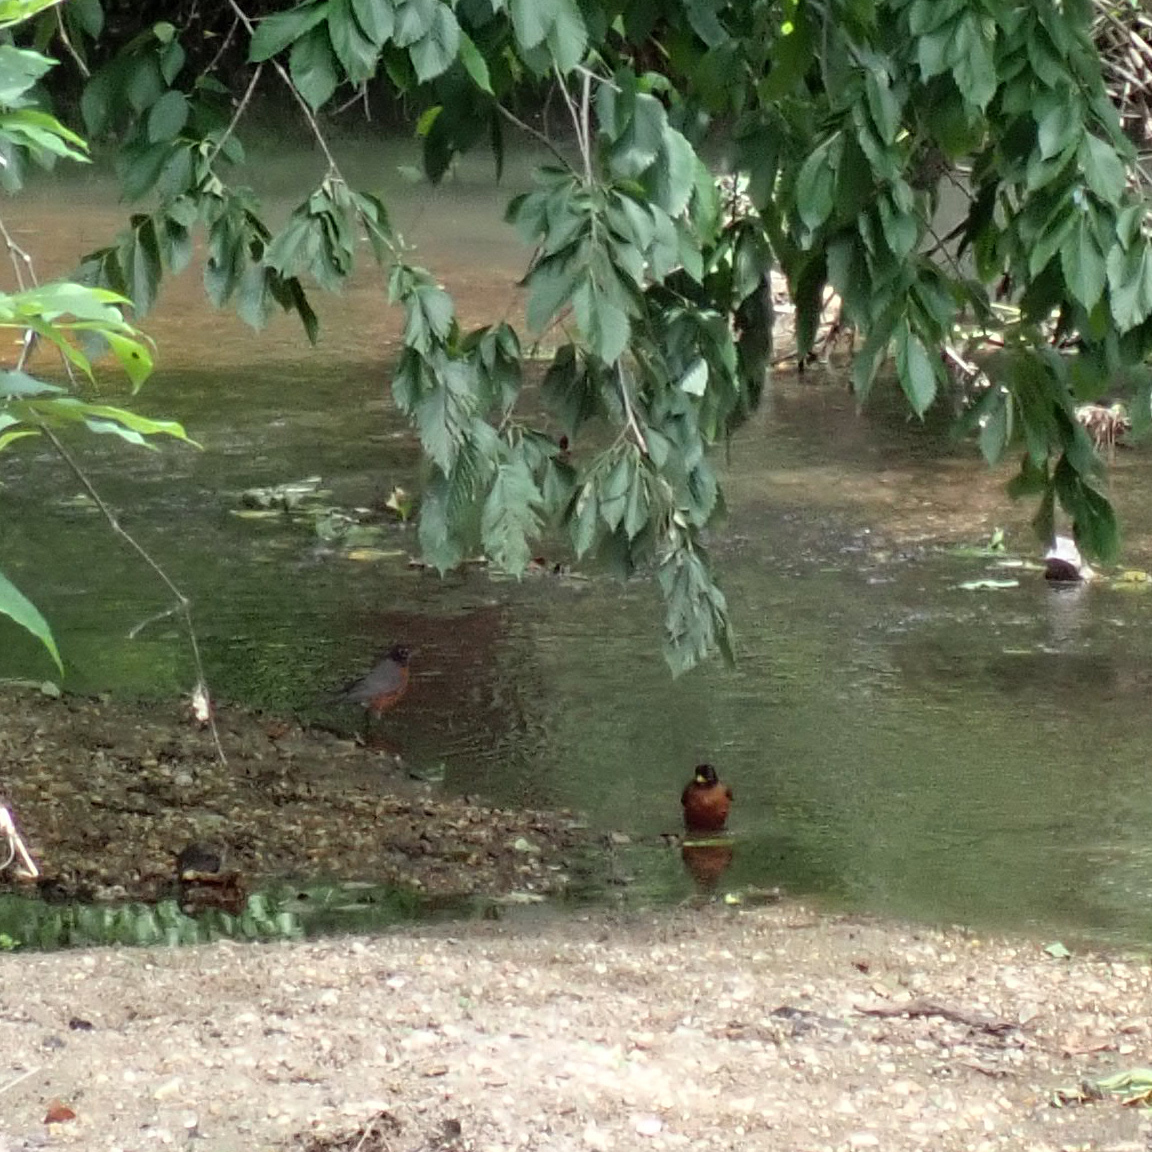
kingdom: Animalia
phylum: Chordata
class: Aves
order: Passeriformes
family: Turdidae
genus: Turdus
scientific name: Turdus migratorius
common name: American robin
